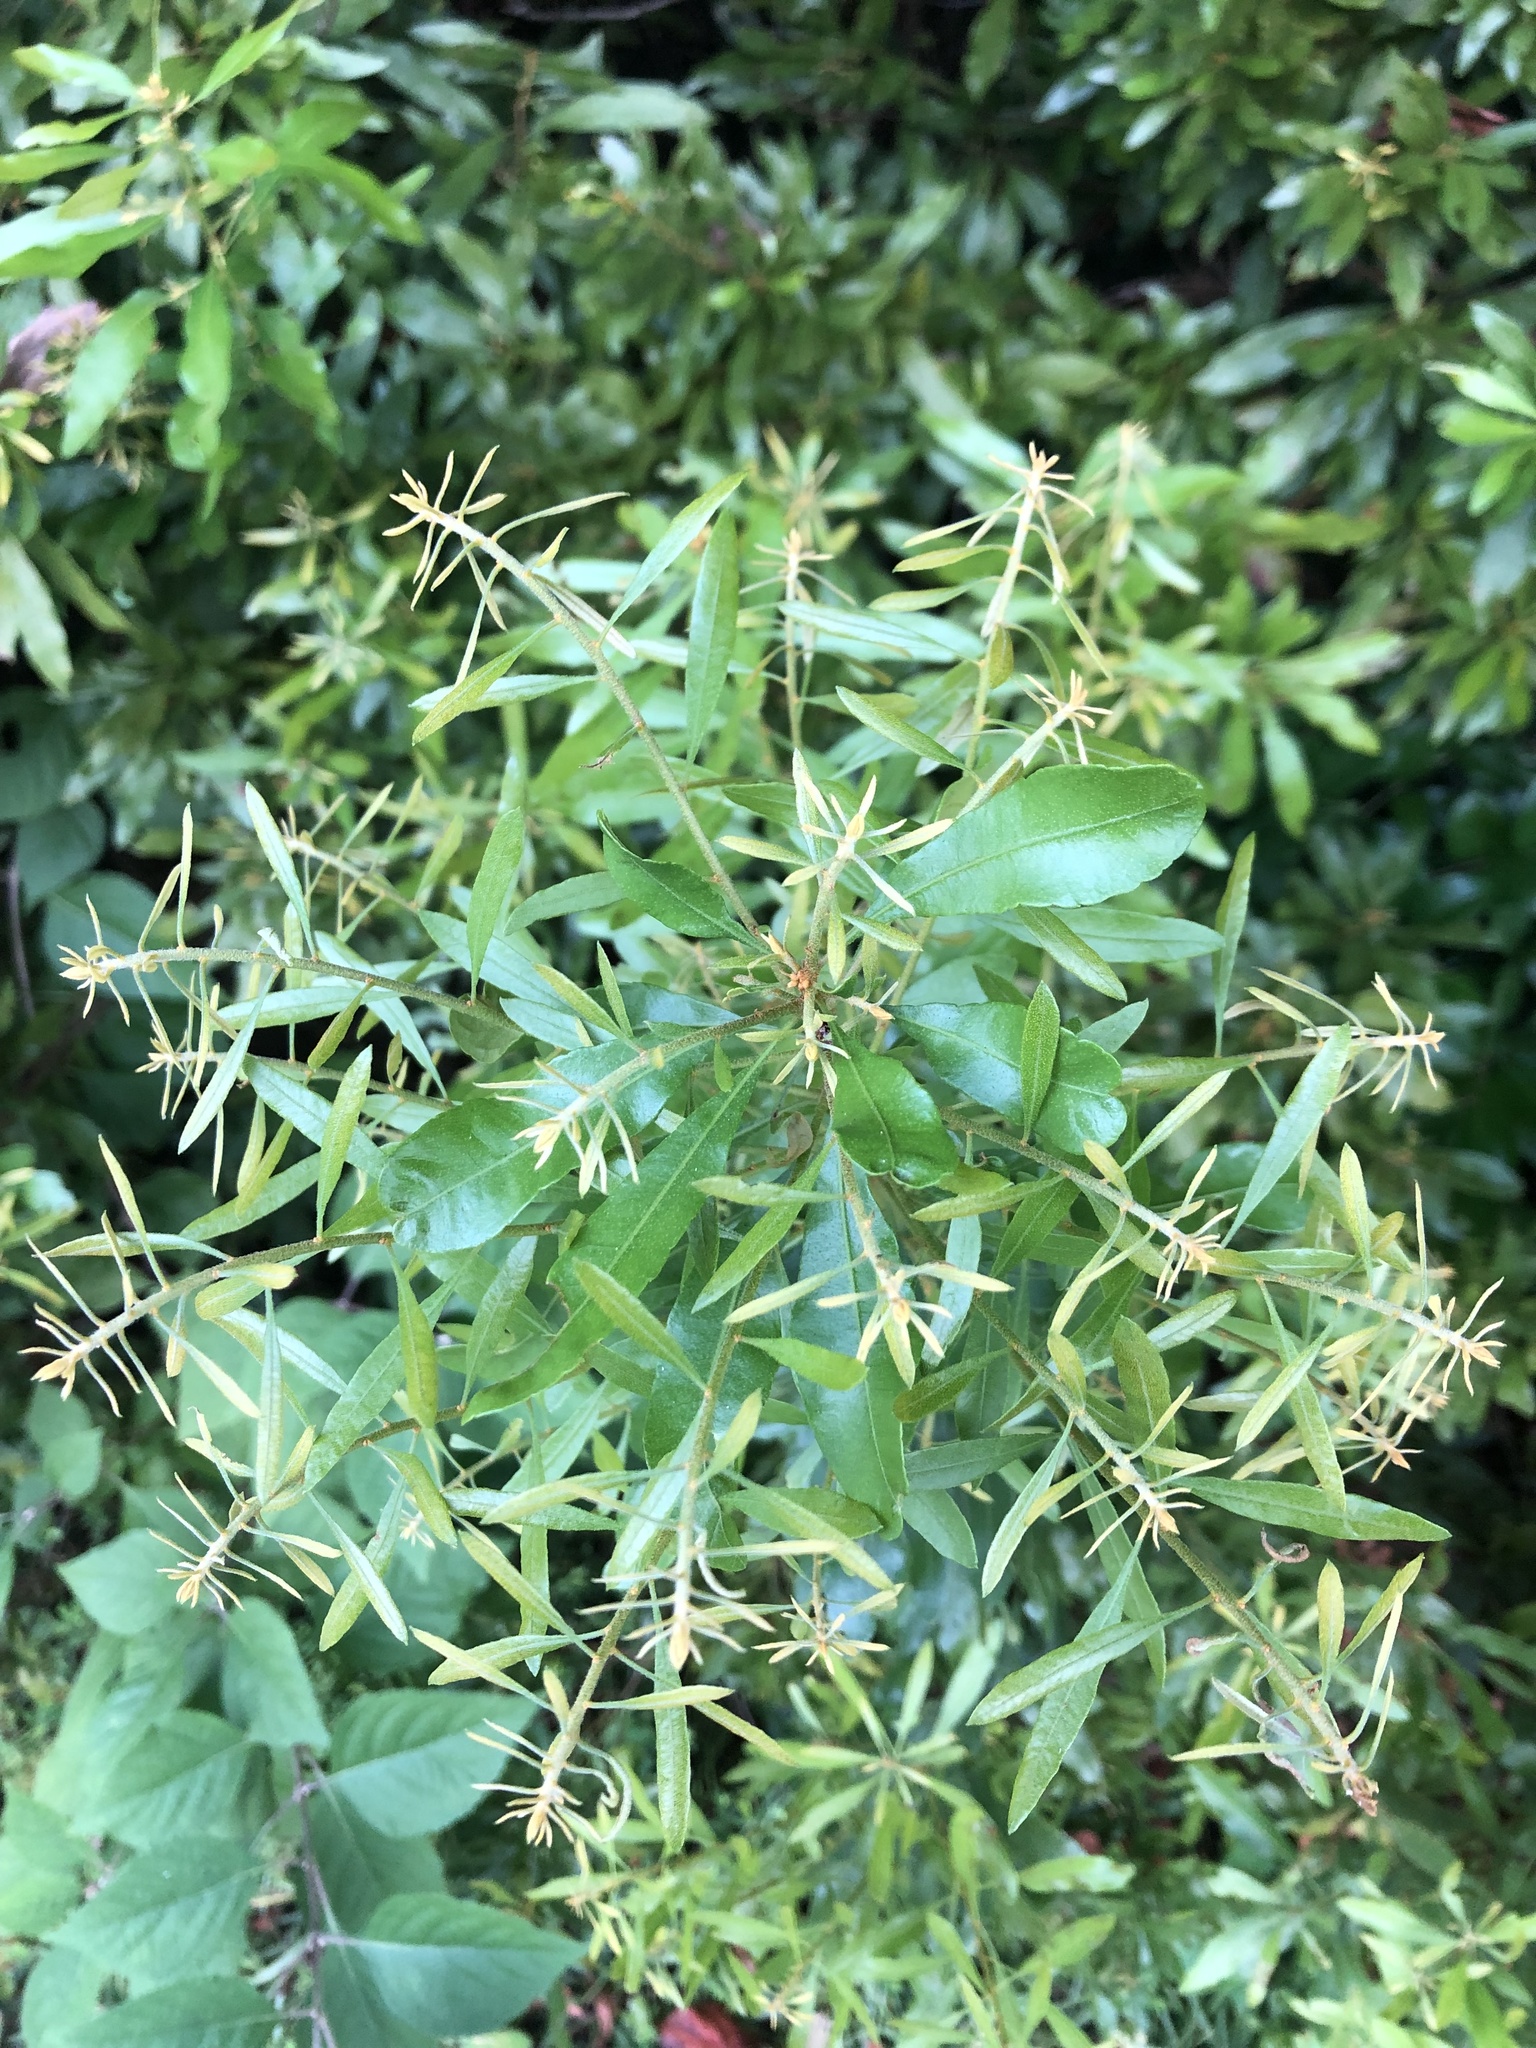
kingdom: Plantae
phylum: Tracheophyta
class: Magnoliopsida
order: Fagales
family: Myricaceae
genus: Morella
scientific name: Morella cerifera
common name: Wax myrtle
